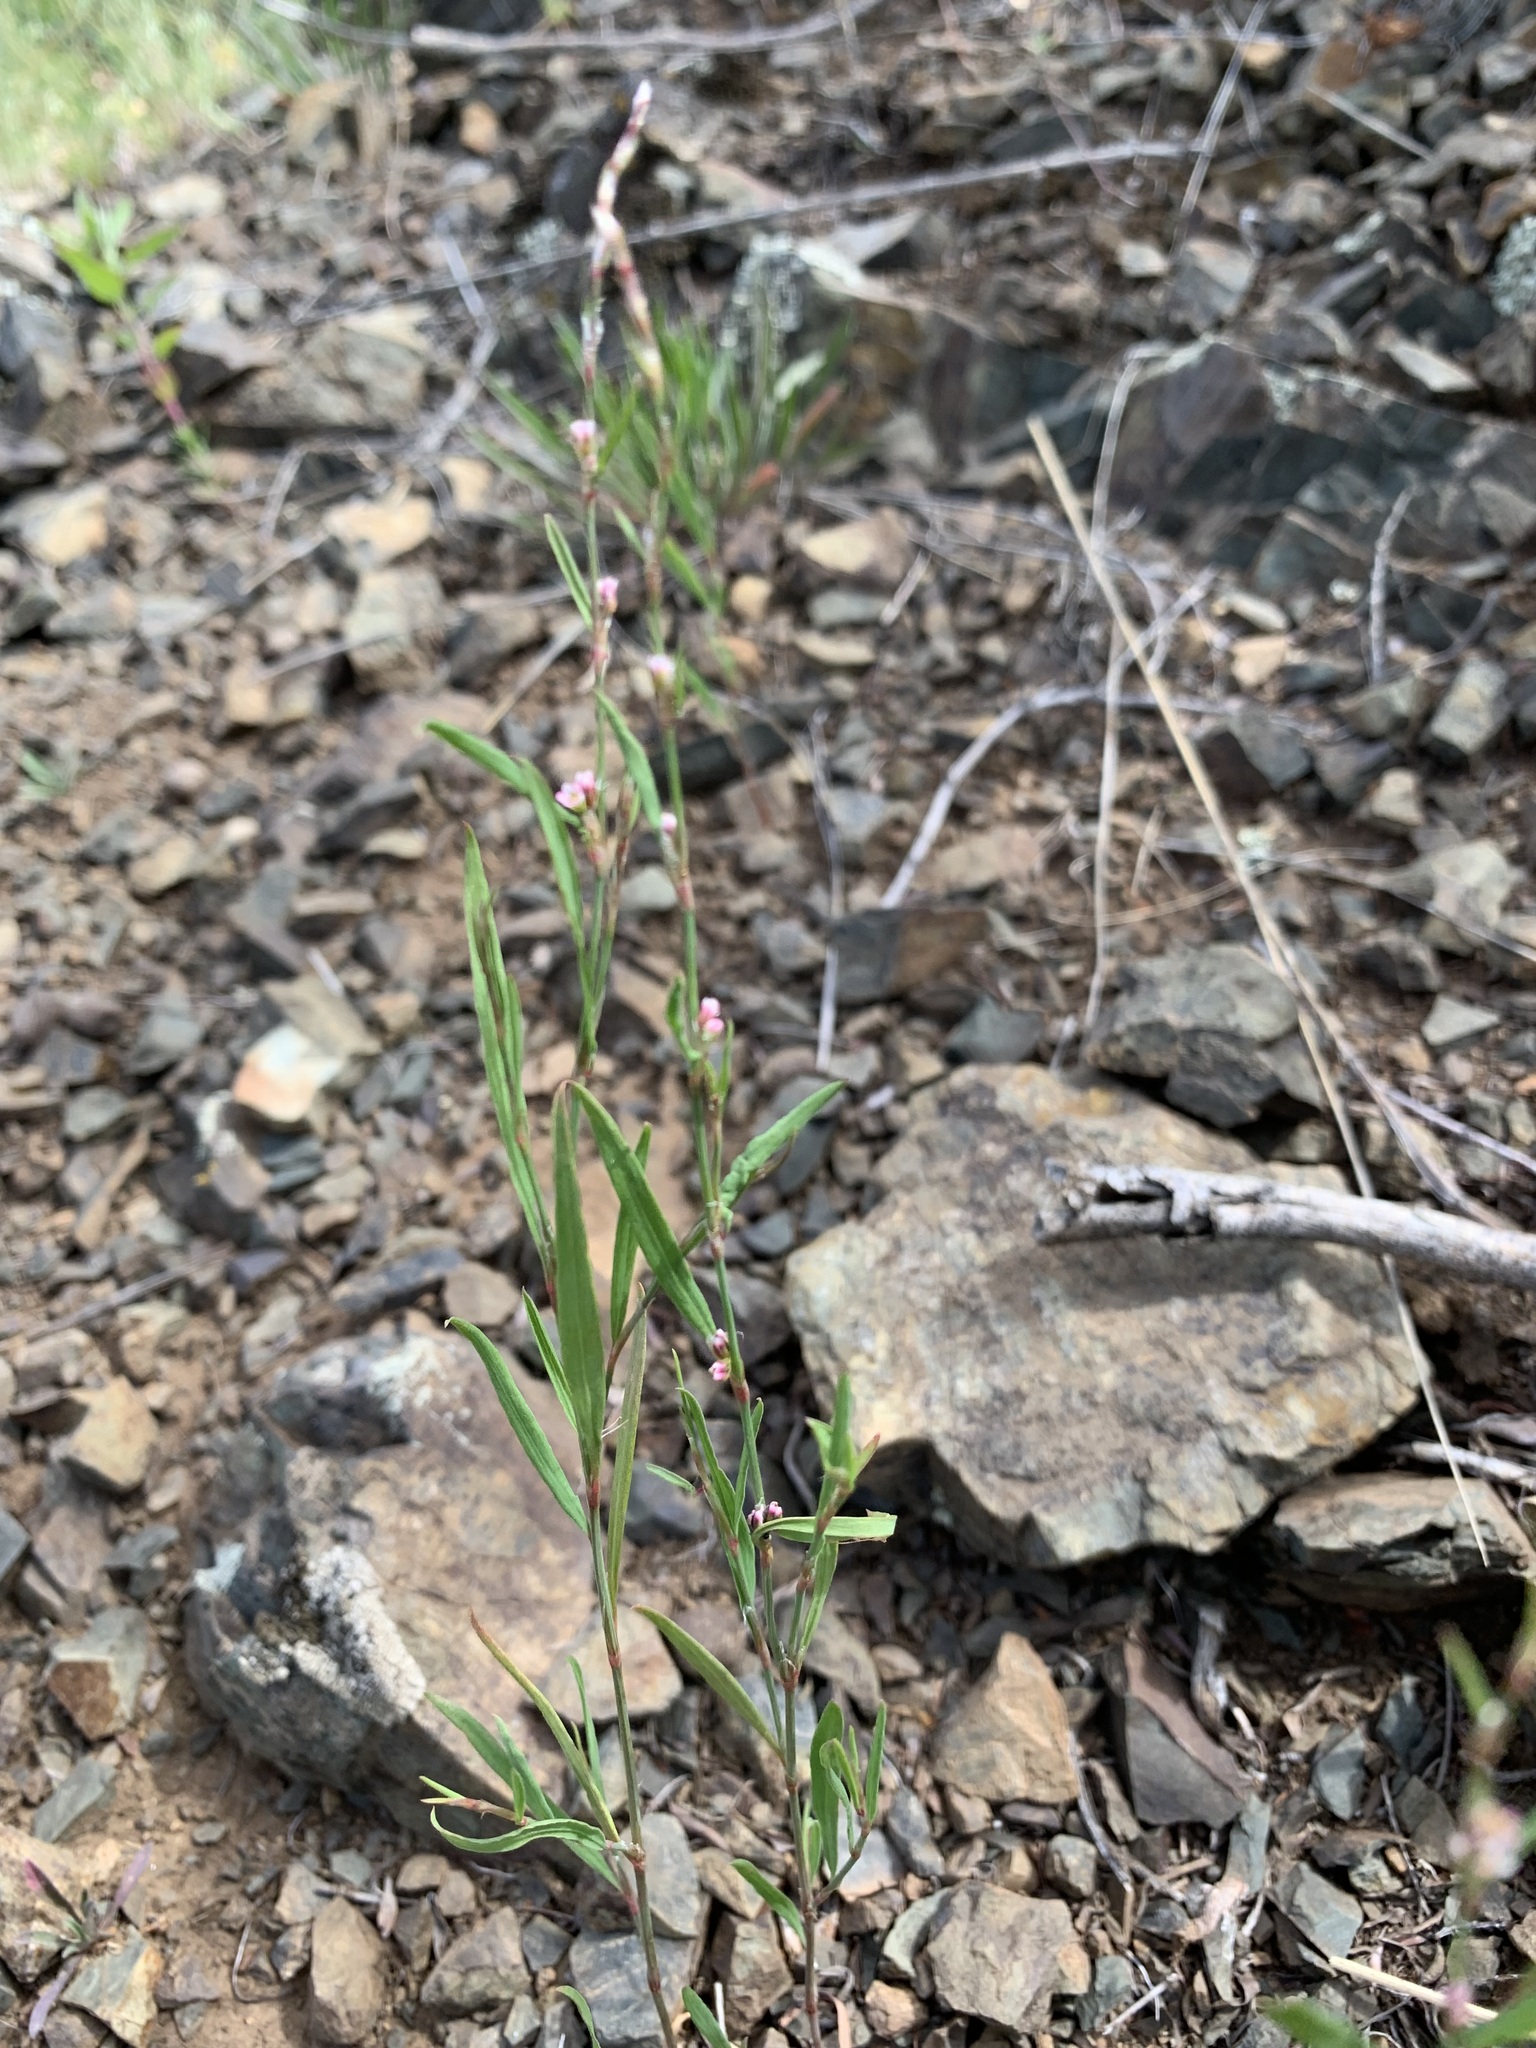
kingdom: Plantae
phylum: Tracheophyta
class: Magnoliopsida
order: Caryophyllales
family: Polygonaceae
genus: Polygonum
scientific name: Polygonum patulum
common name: Red-knotgrass
